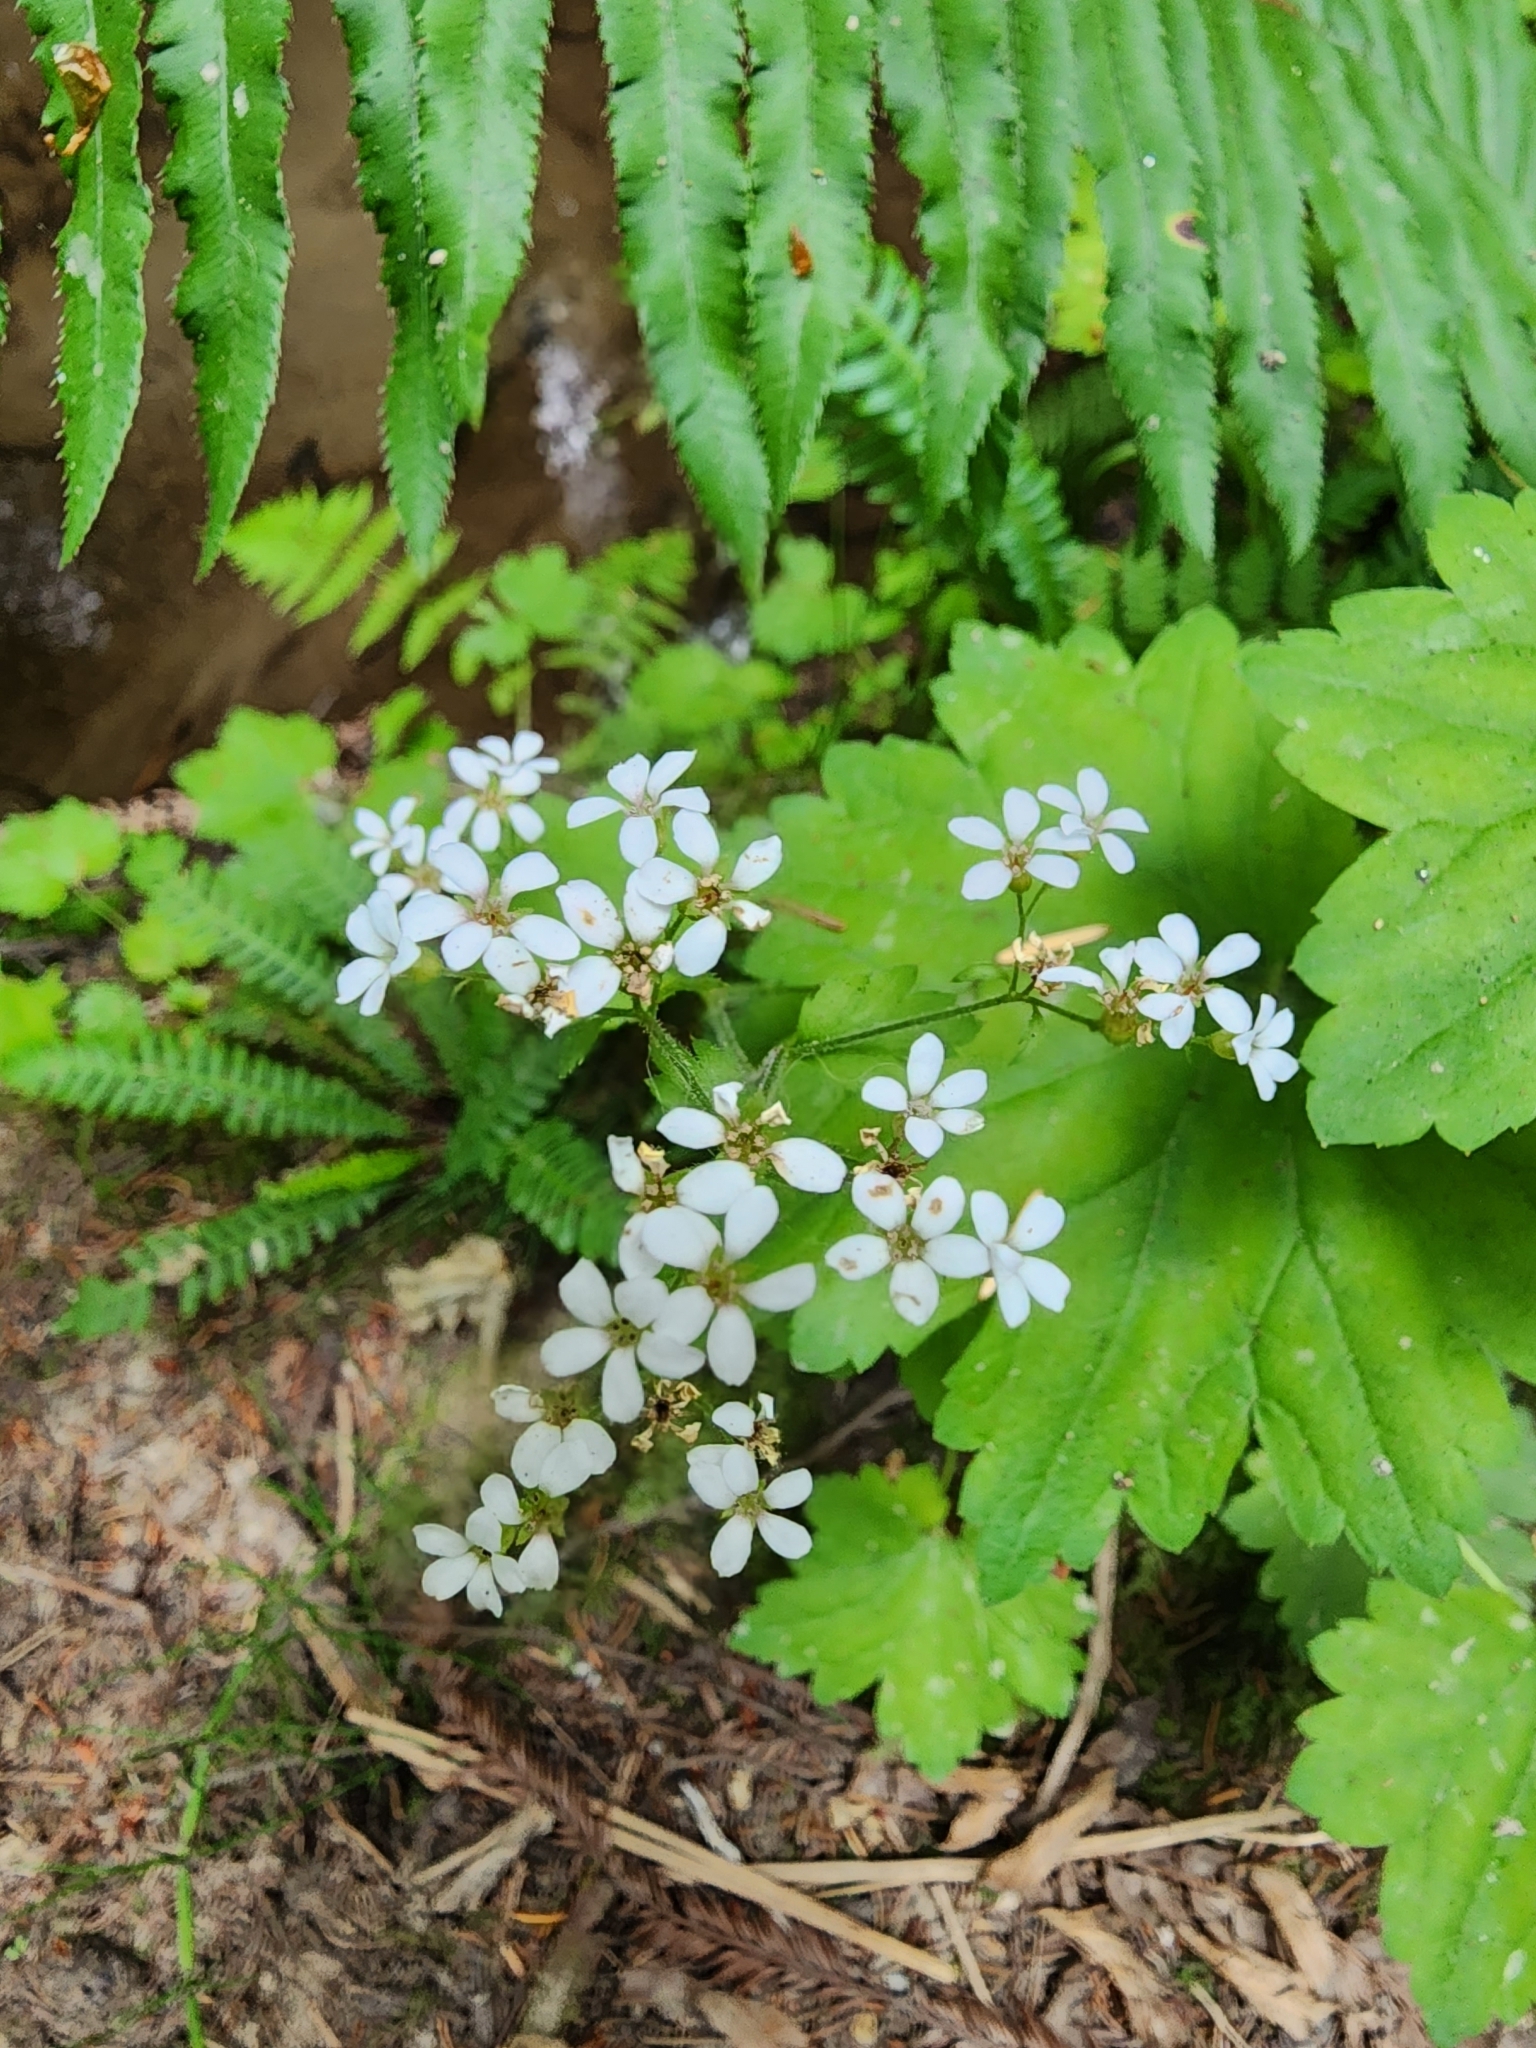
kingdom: Plantae
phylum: Tracheophyta
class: Magnoliopsida
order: Saxifragales
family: Saxifragaceae
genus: Boykinia
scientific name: Boykinia occidentalis
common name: Coast boykinia
